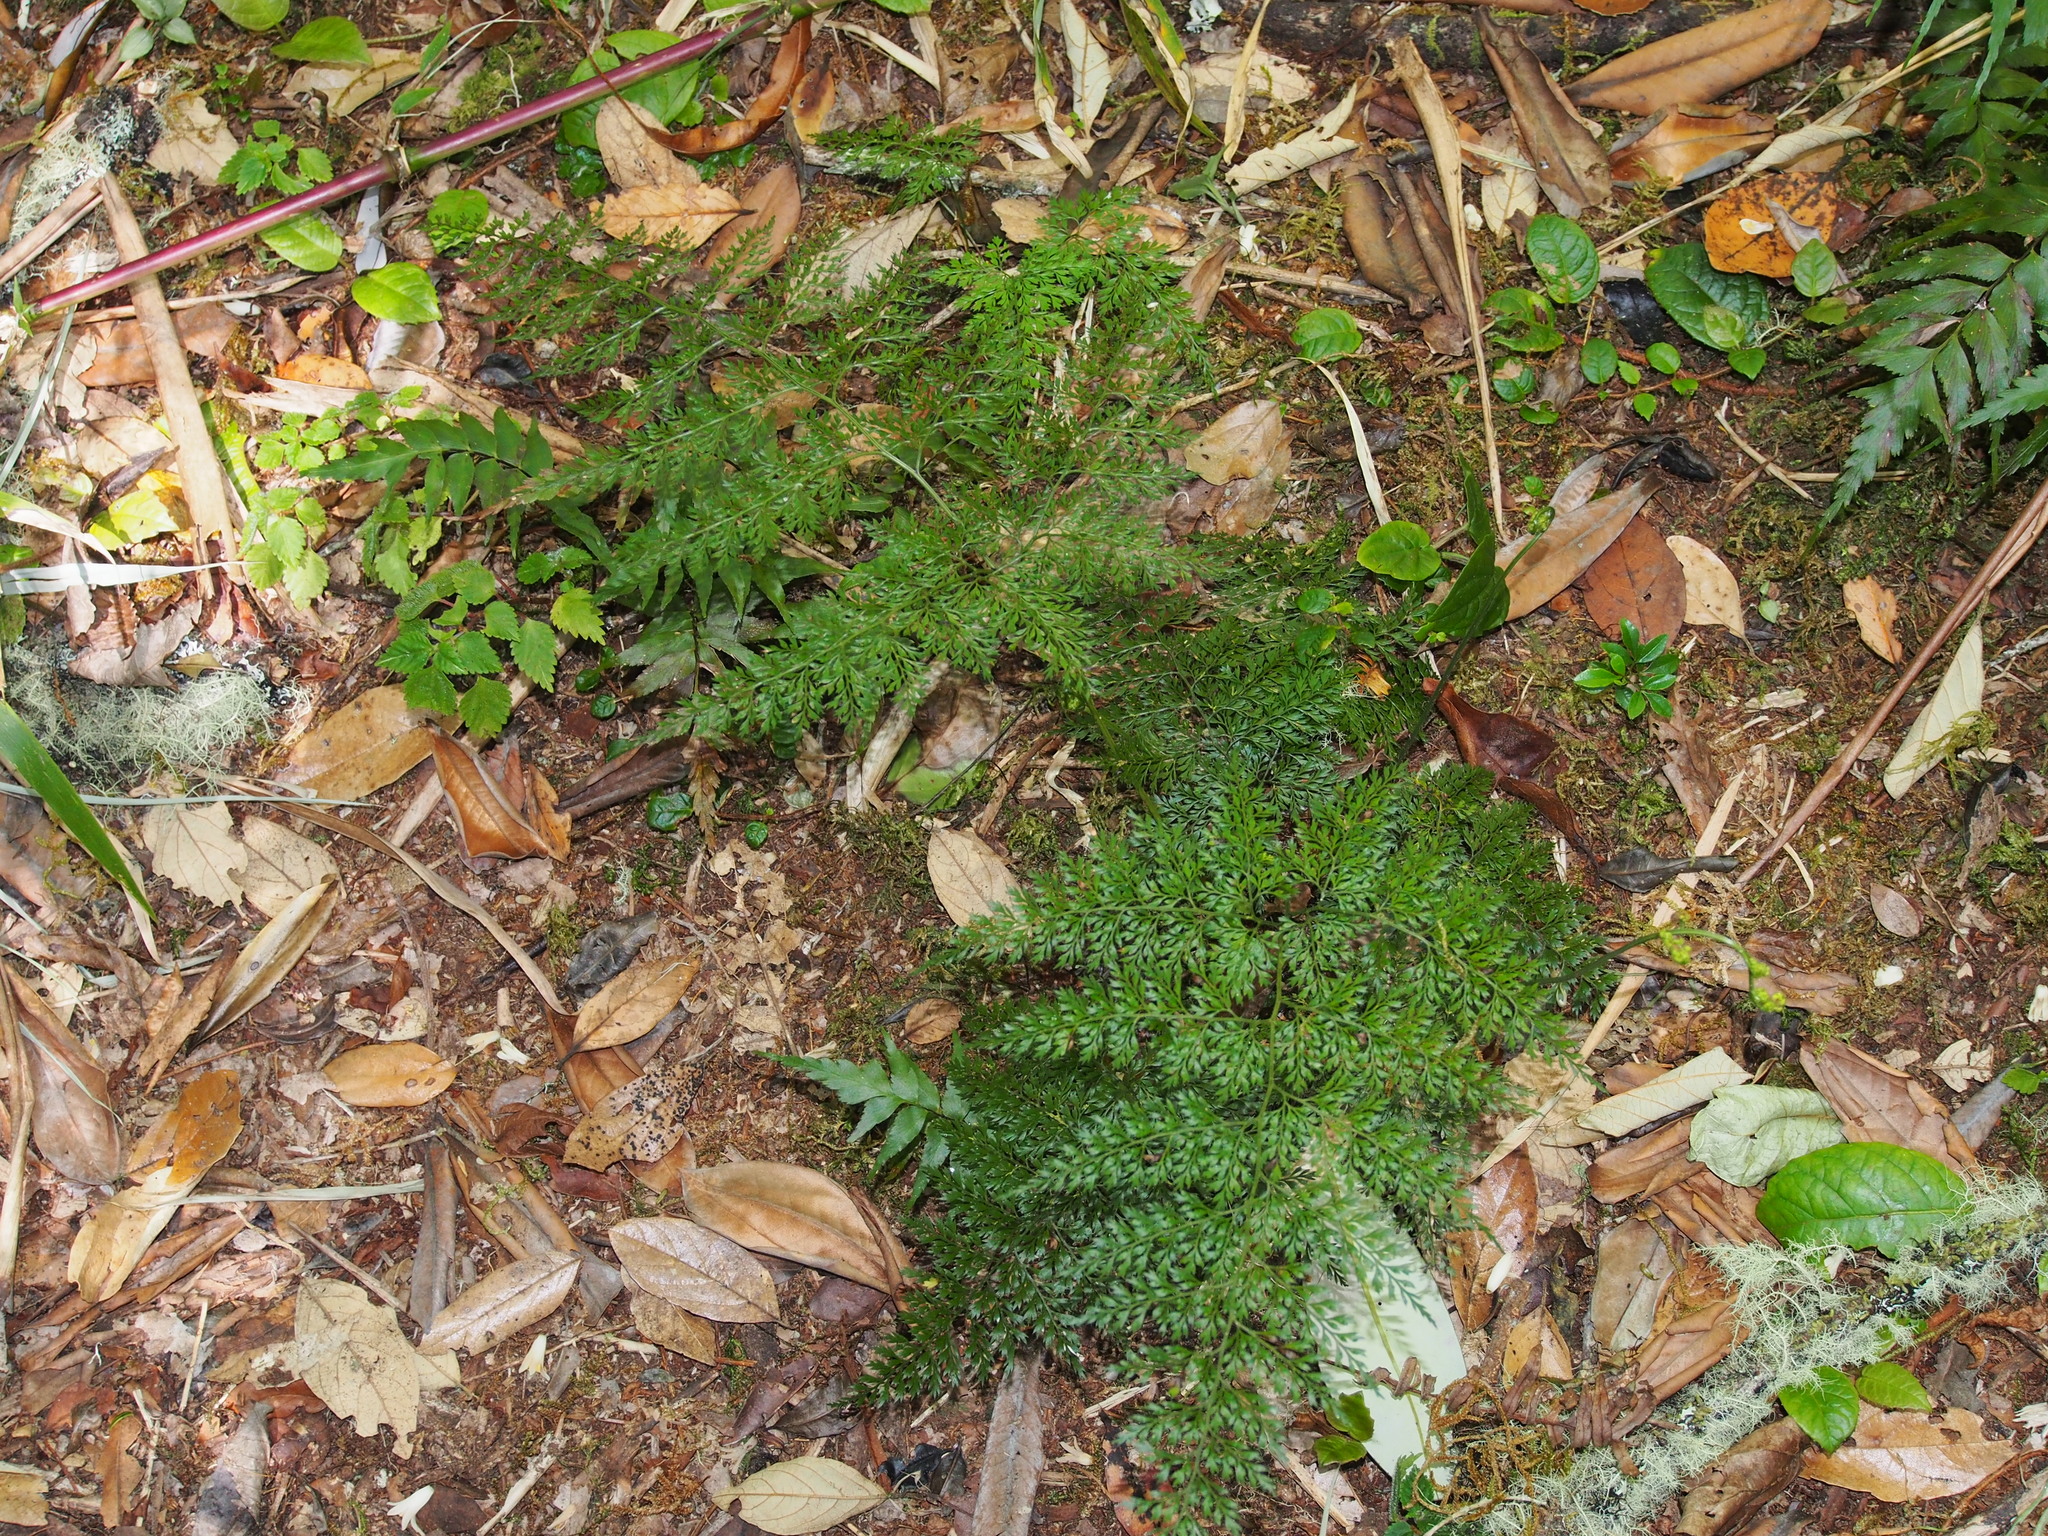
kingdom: Plantae
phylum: Tracheophyta
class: Polypodiopsida
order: Polypodiales
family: Dryopteridaceae
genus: Arachniodes
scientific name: Arachniodes denticulata
